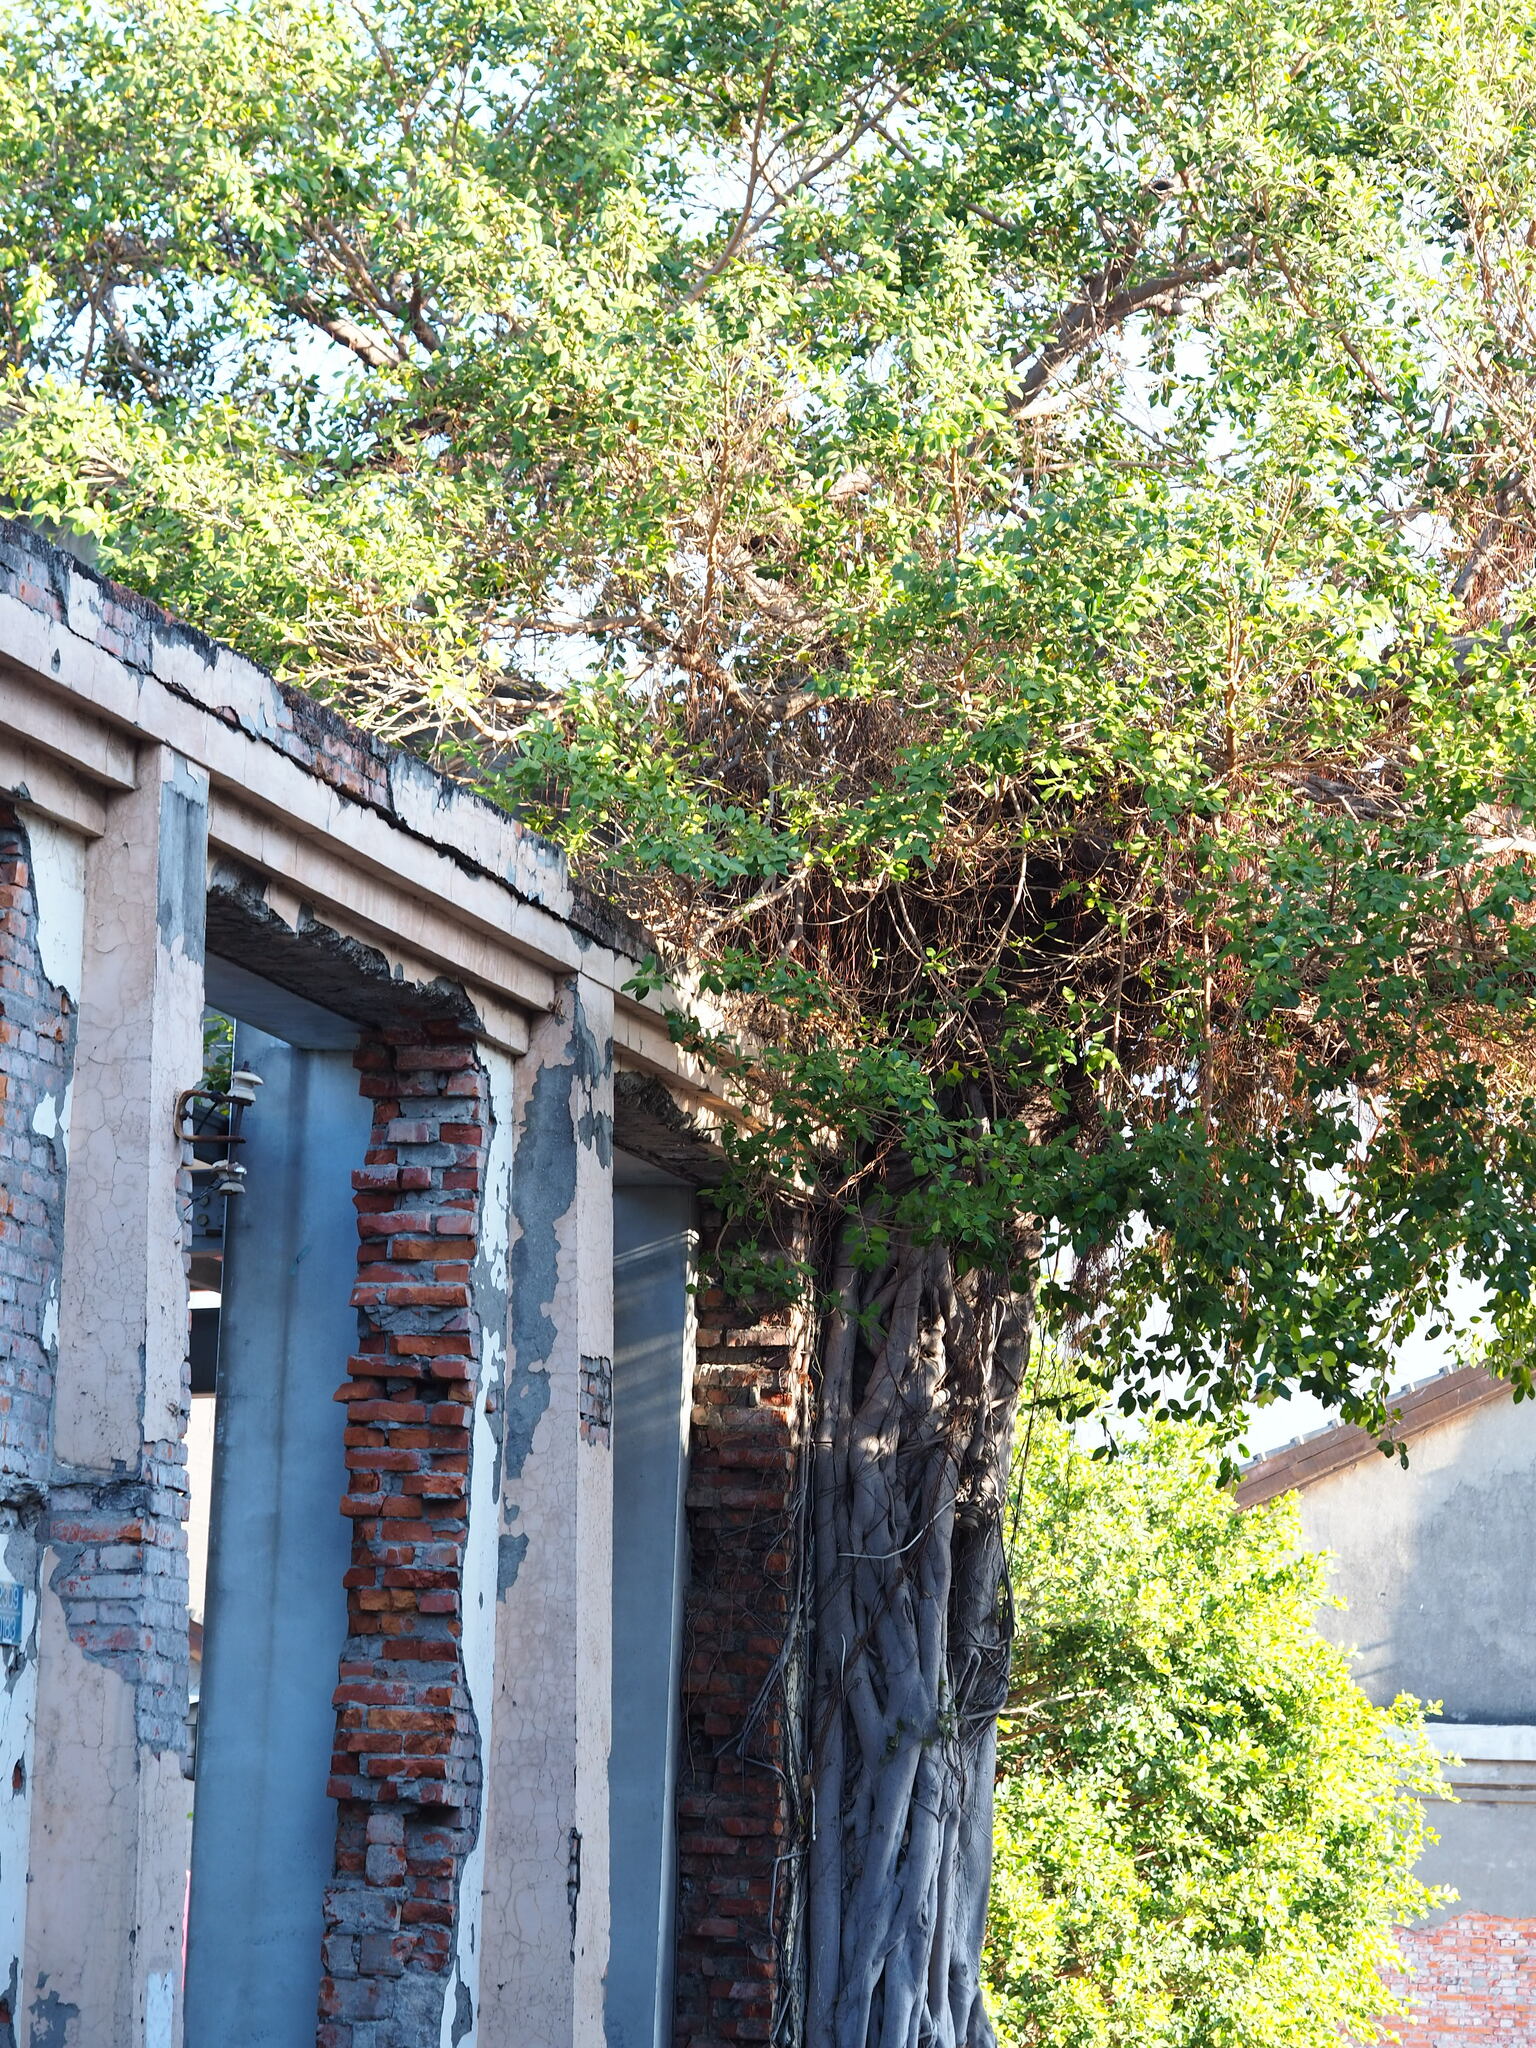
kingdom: Plantae
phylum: Tracheophyta
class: Magnoliopsida
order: Rosales
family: Moraceae
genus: Ficus
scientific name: Ficus microcarpa
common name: Chinese banyan
